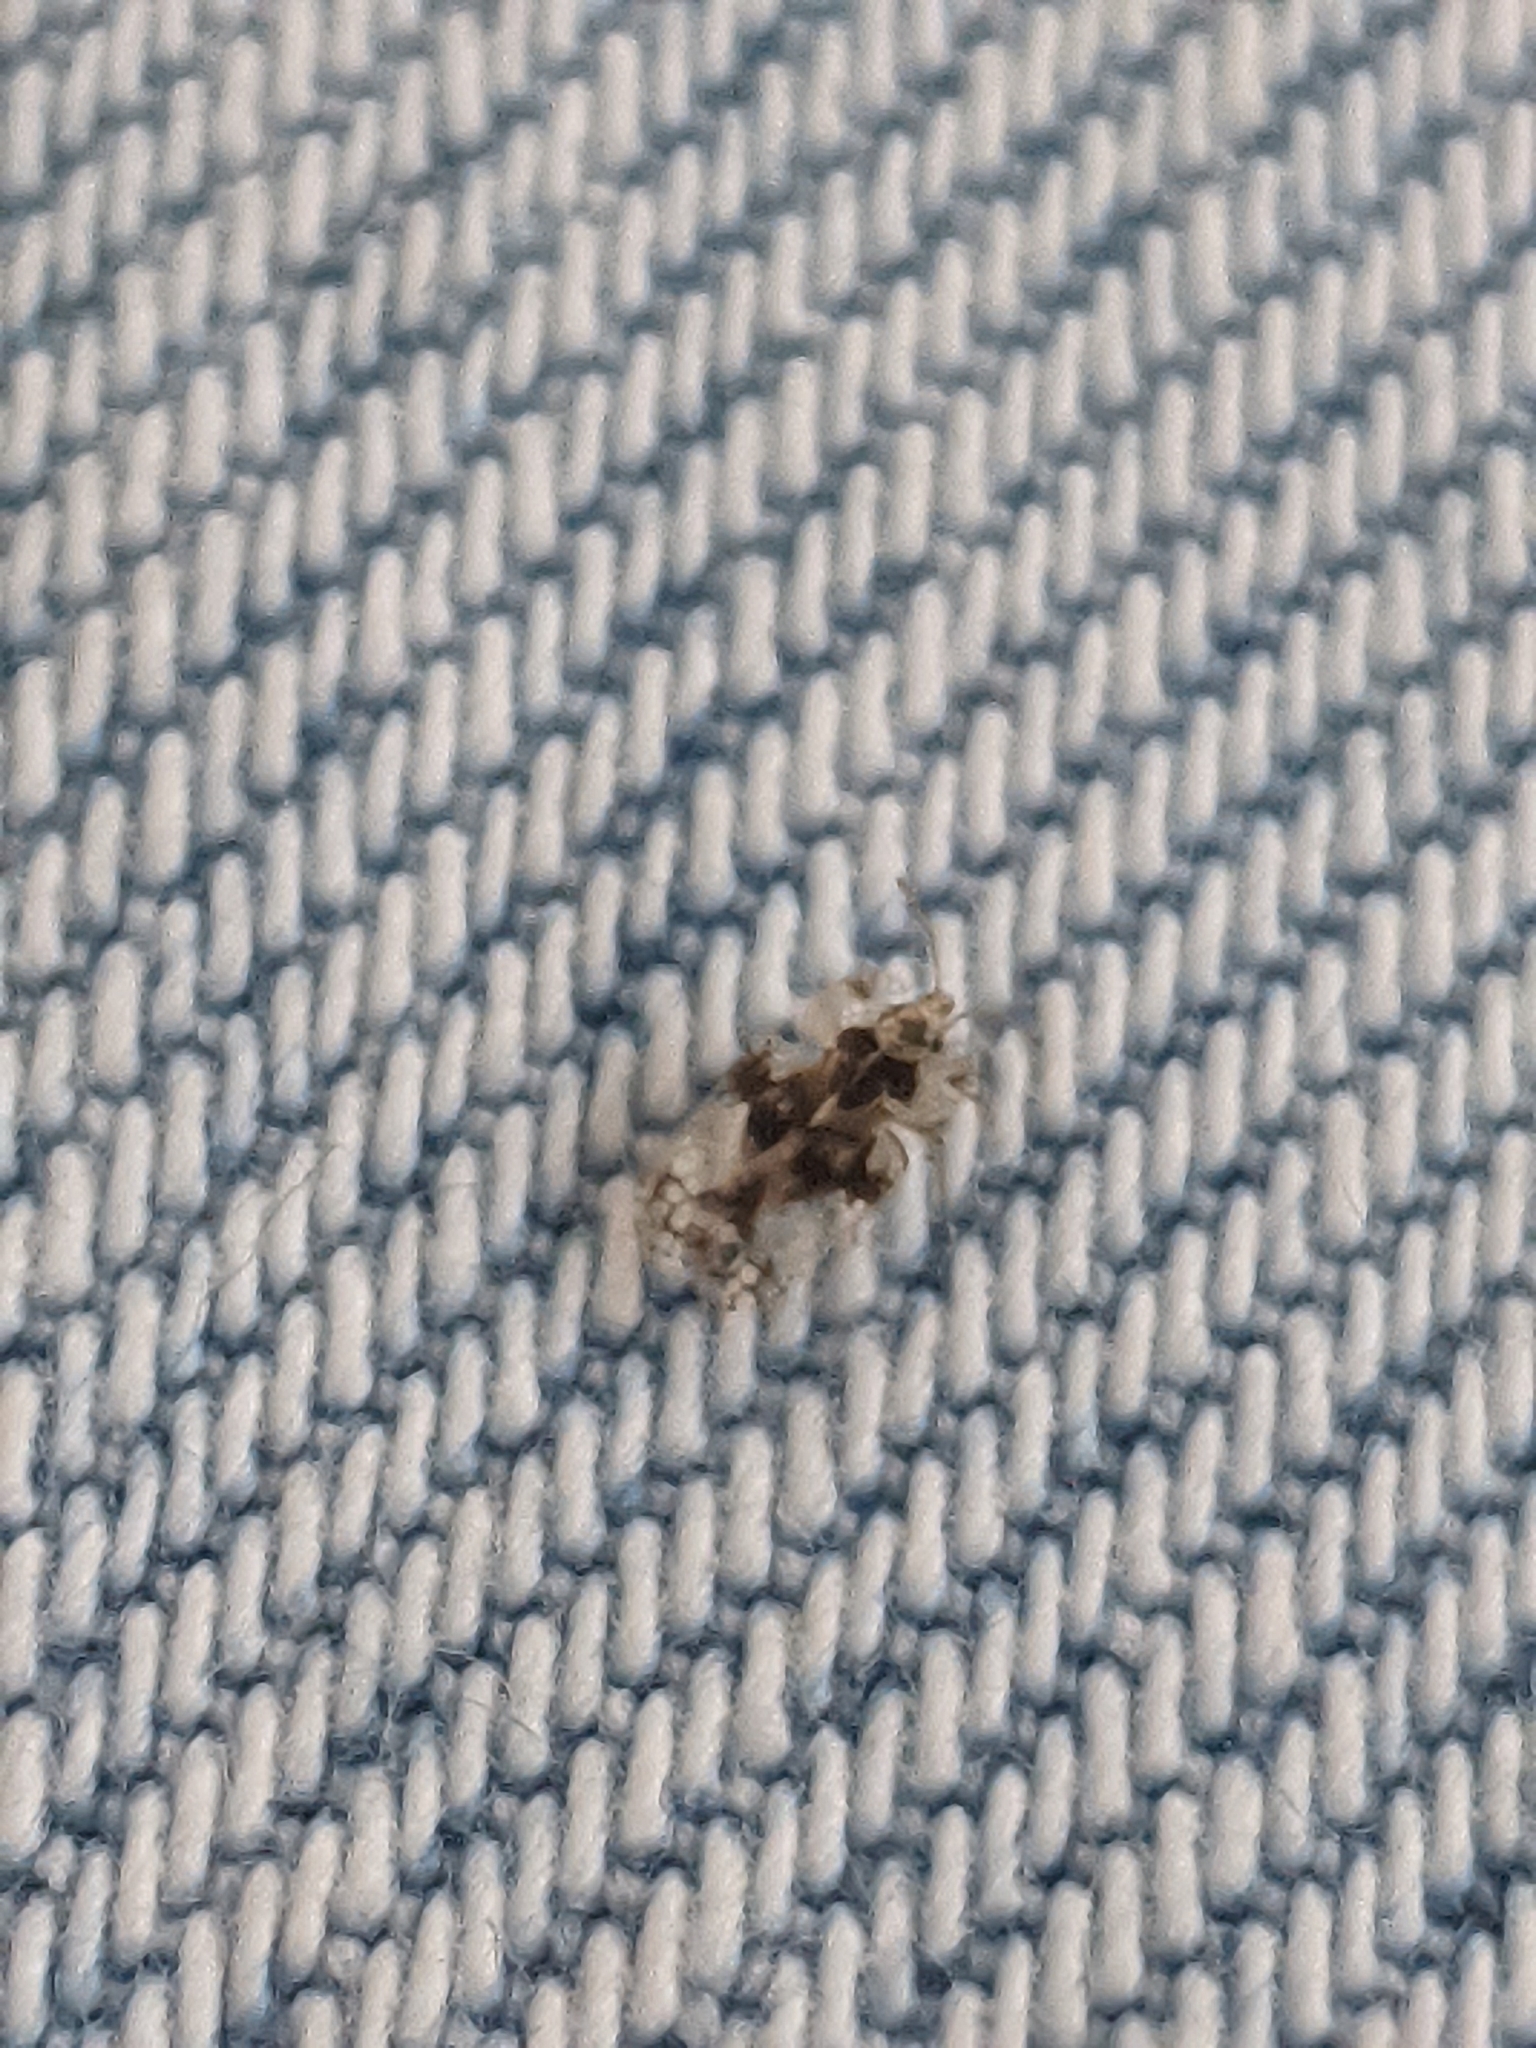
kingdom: Animalia
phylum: Arthropoda
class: Insecta
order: Hemiptera
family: Tingidae
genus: Corythucha
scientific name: Corythucha arcuata
